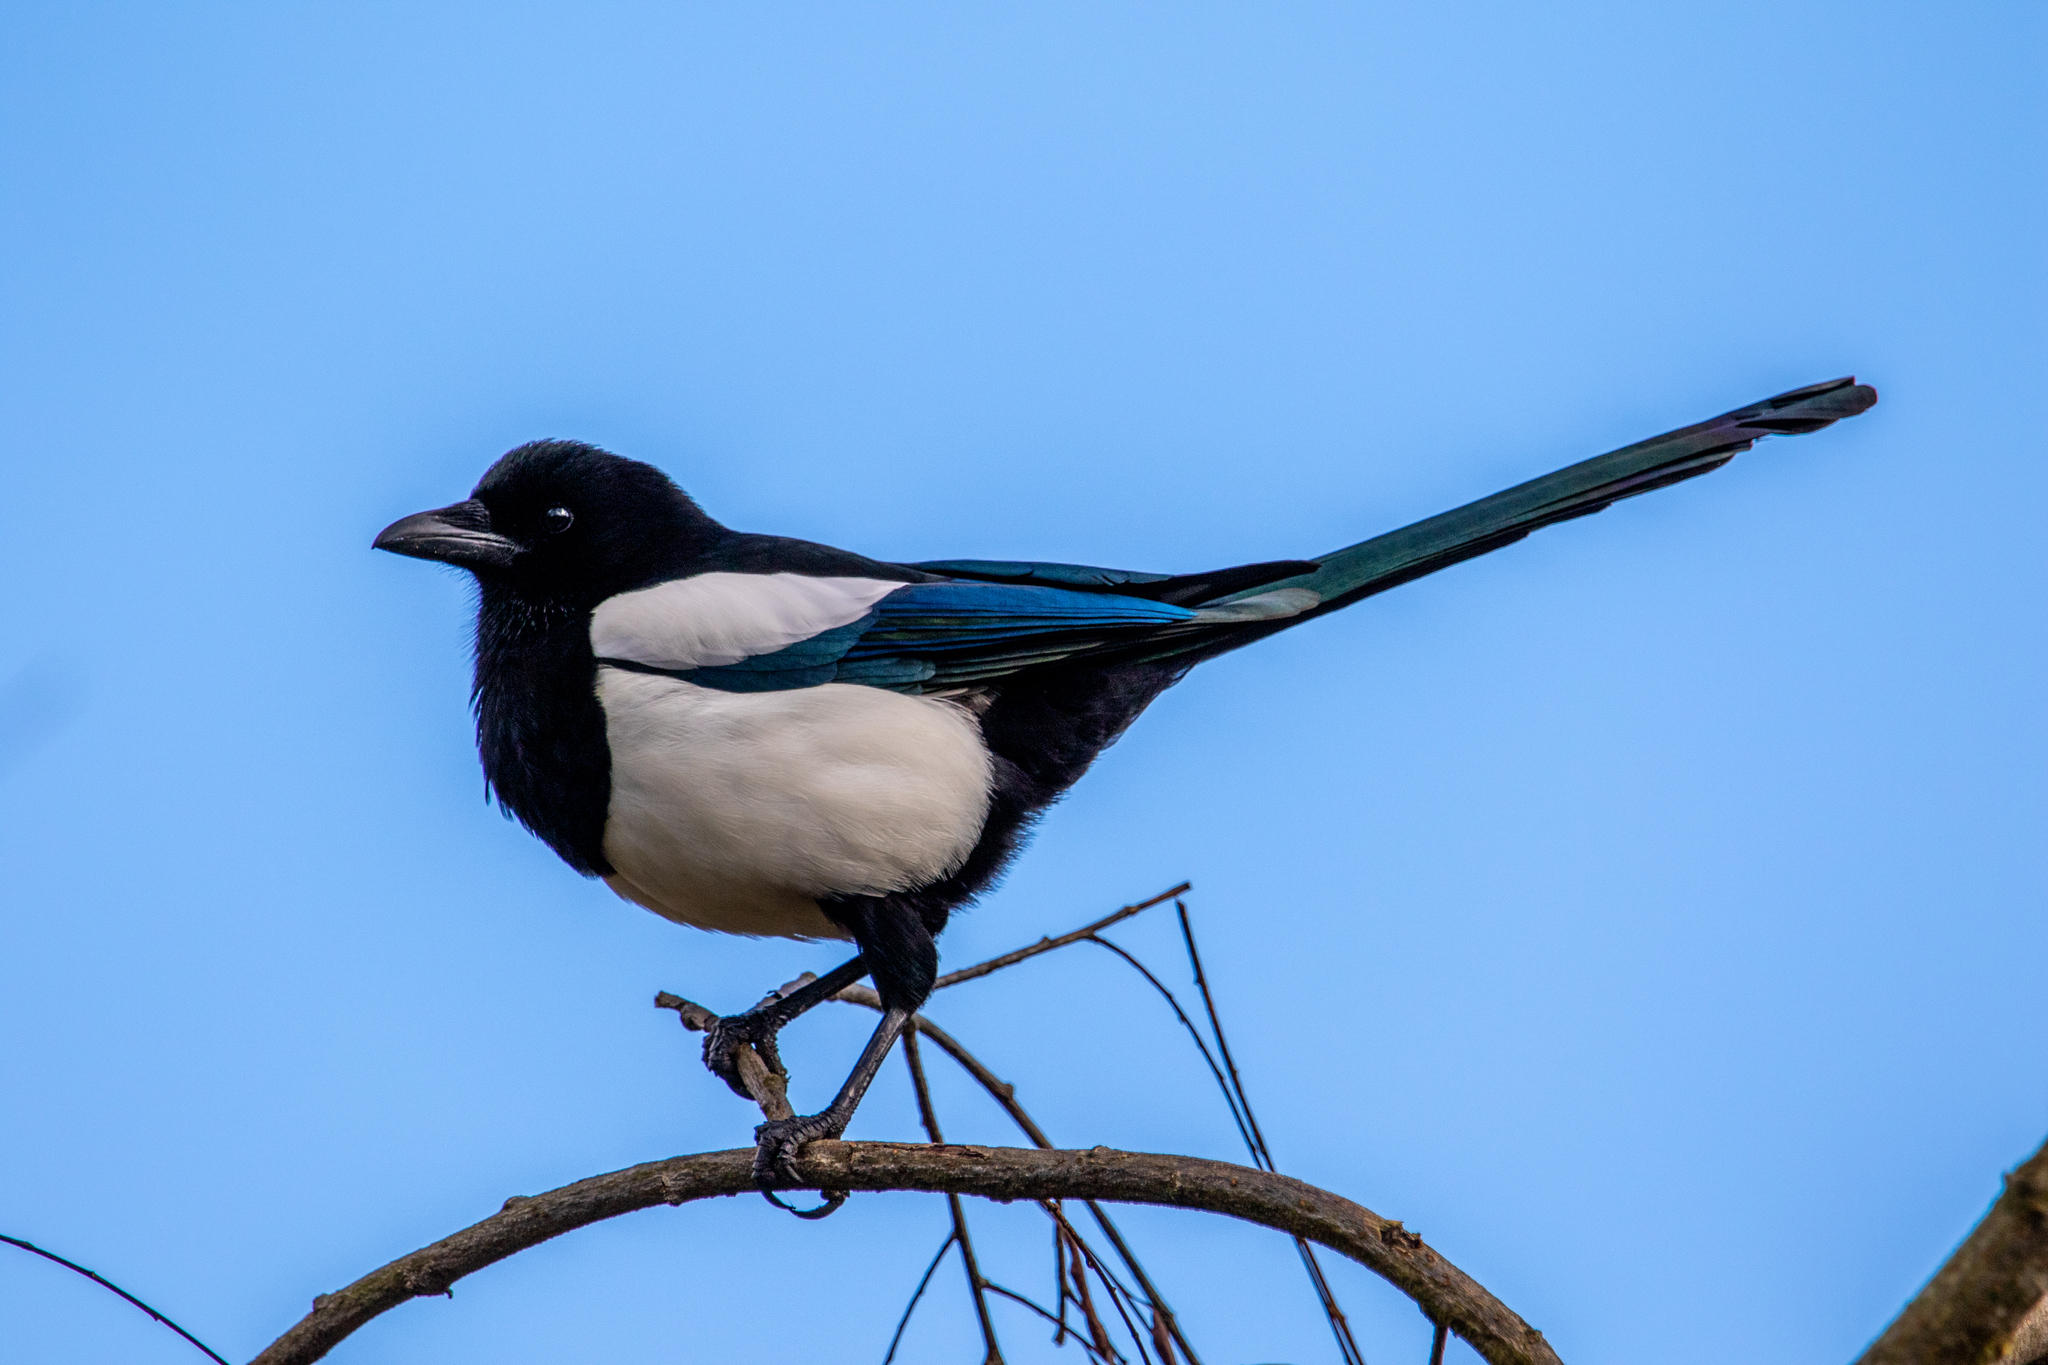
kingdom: Animalia
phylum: Chordata
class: Aves
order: Passeriformes
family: Corvidae
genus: Pica
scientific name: Pica pica
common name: Eurasian magpie
